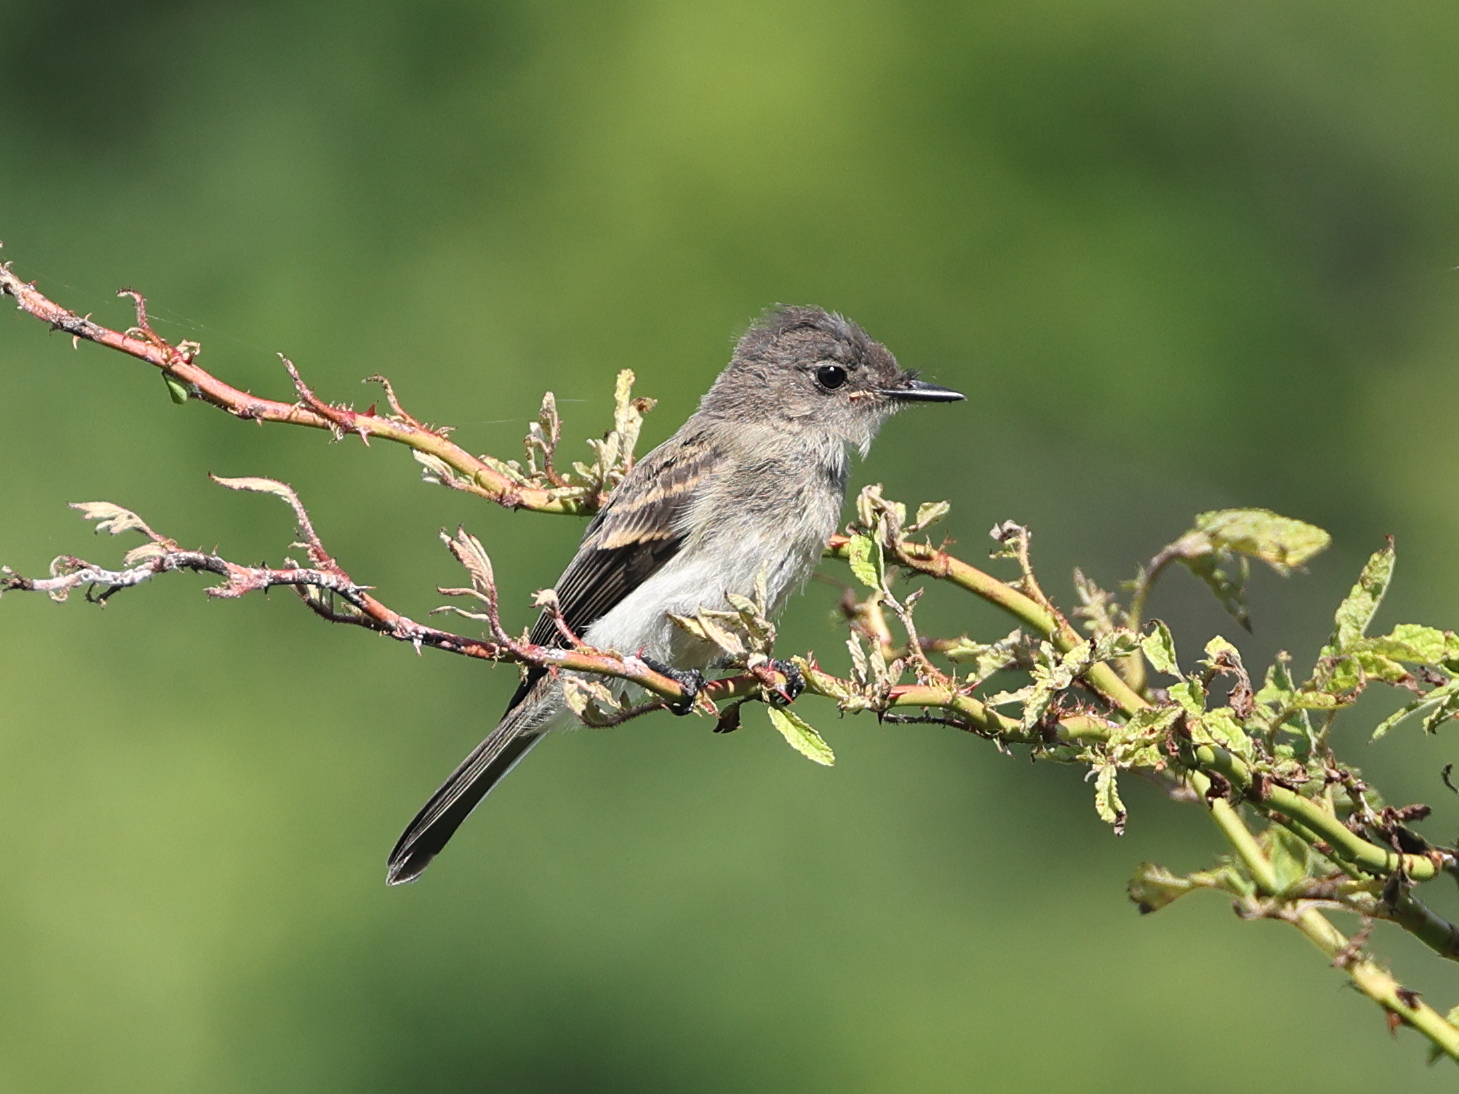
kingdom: Animalia
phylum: Chordata
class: Aves
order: Passeriformes
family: Tyrannidae
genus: Sayornis
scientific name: Sayornis phoebe
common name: Eastern phoebe
